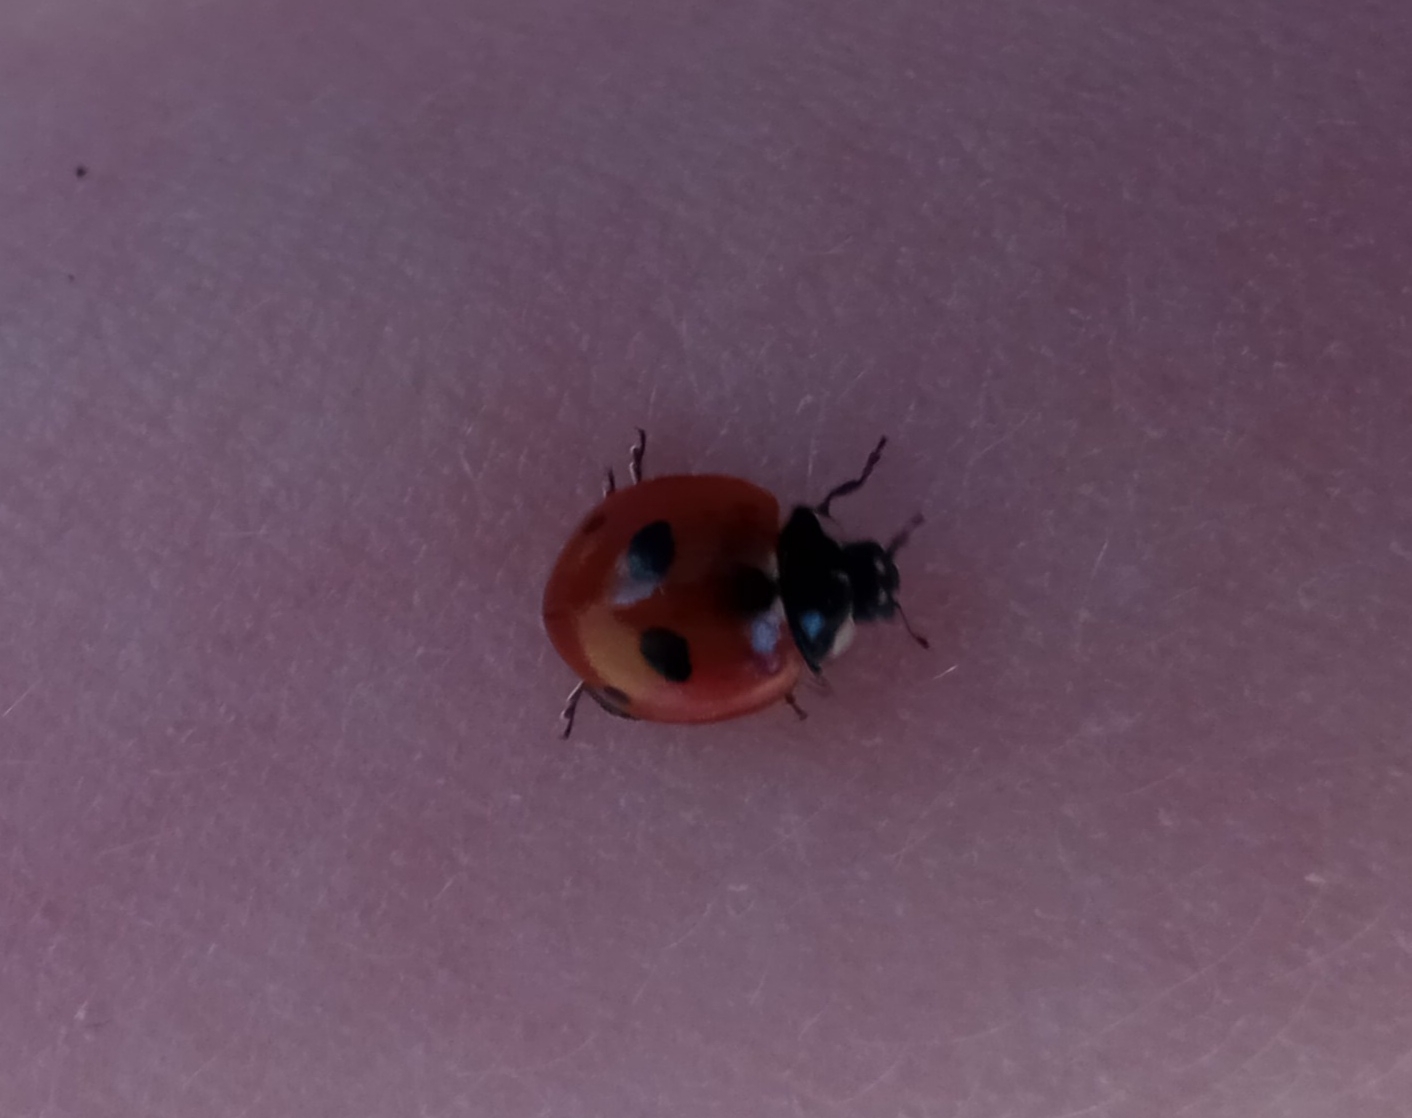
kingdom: Animalia
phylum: Arthropoda
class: Insecta
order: Coleoptera
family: Coccinellidae
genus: Coccinella
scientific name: Coccinella quinquepunctata
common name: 5-spot ladybird
